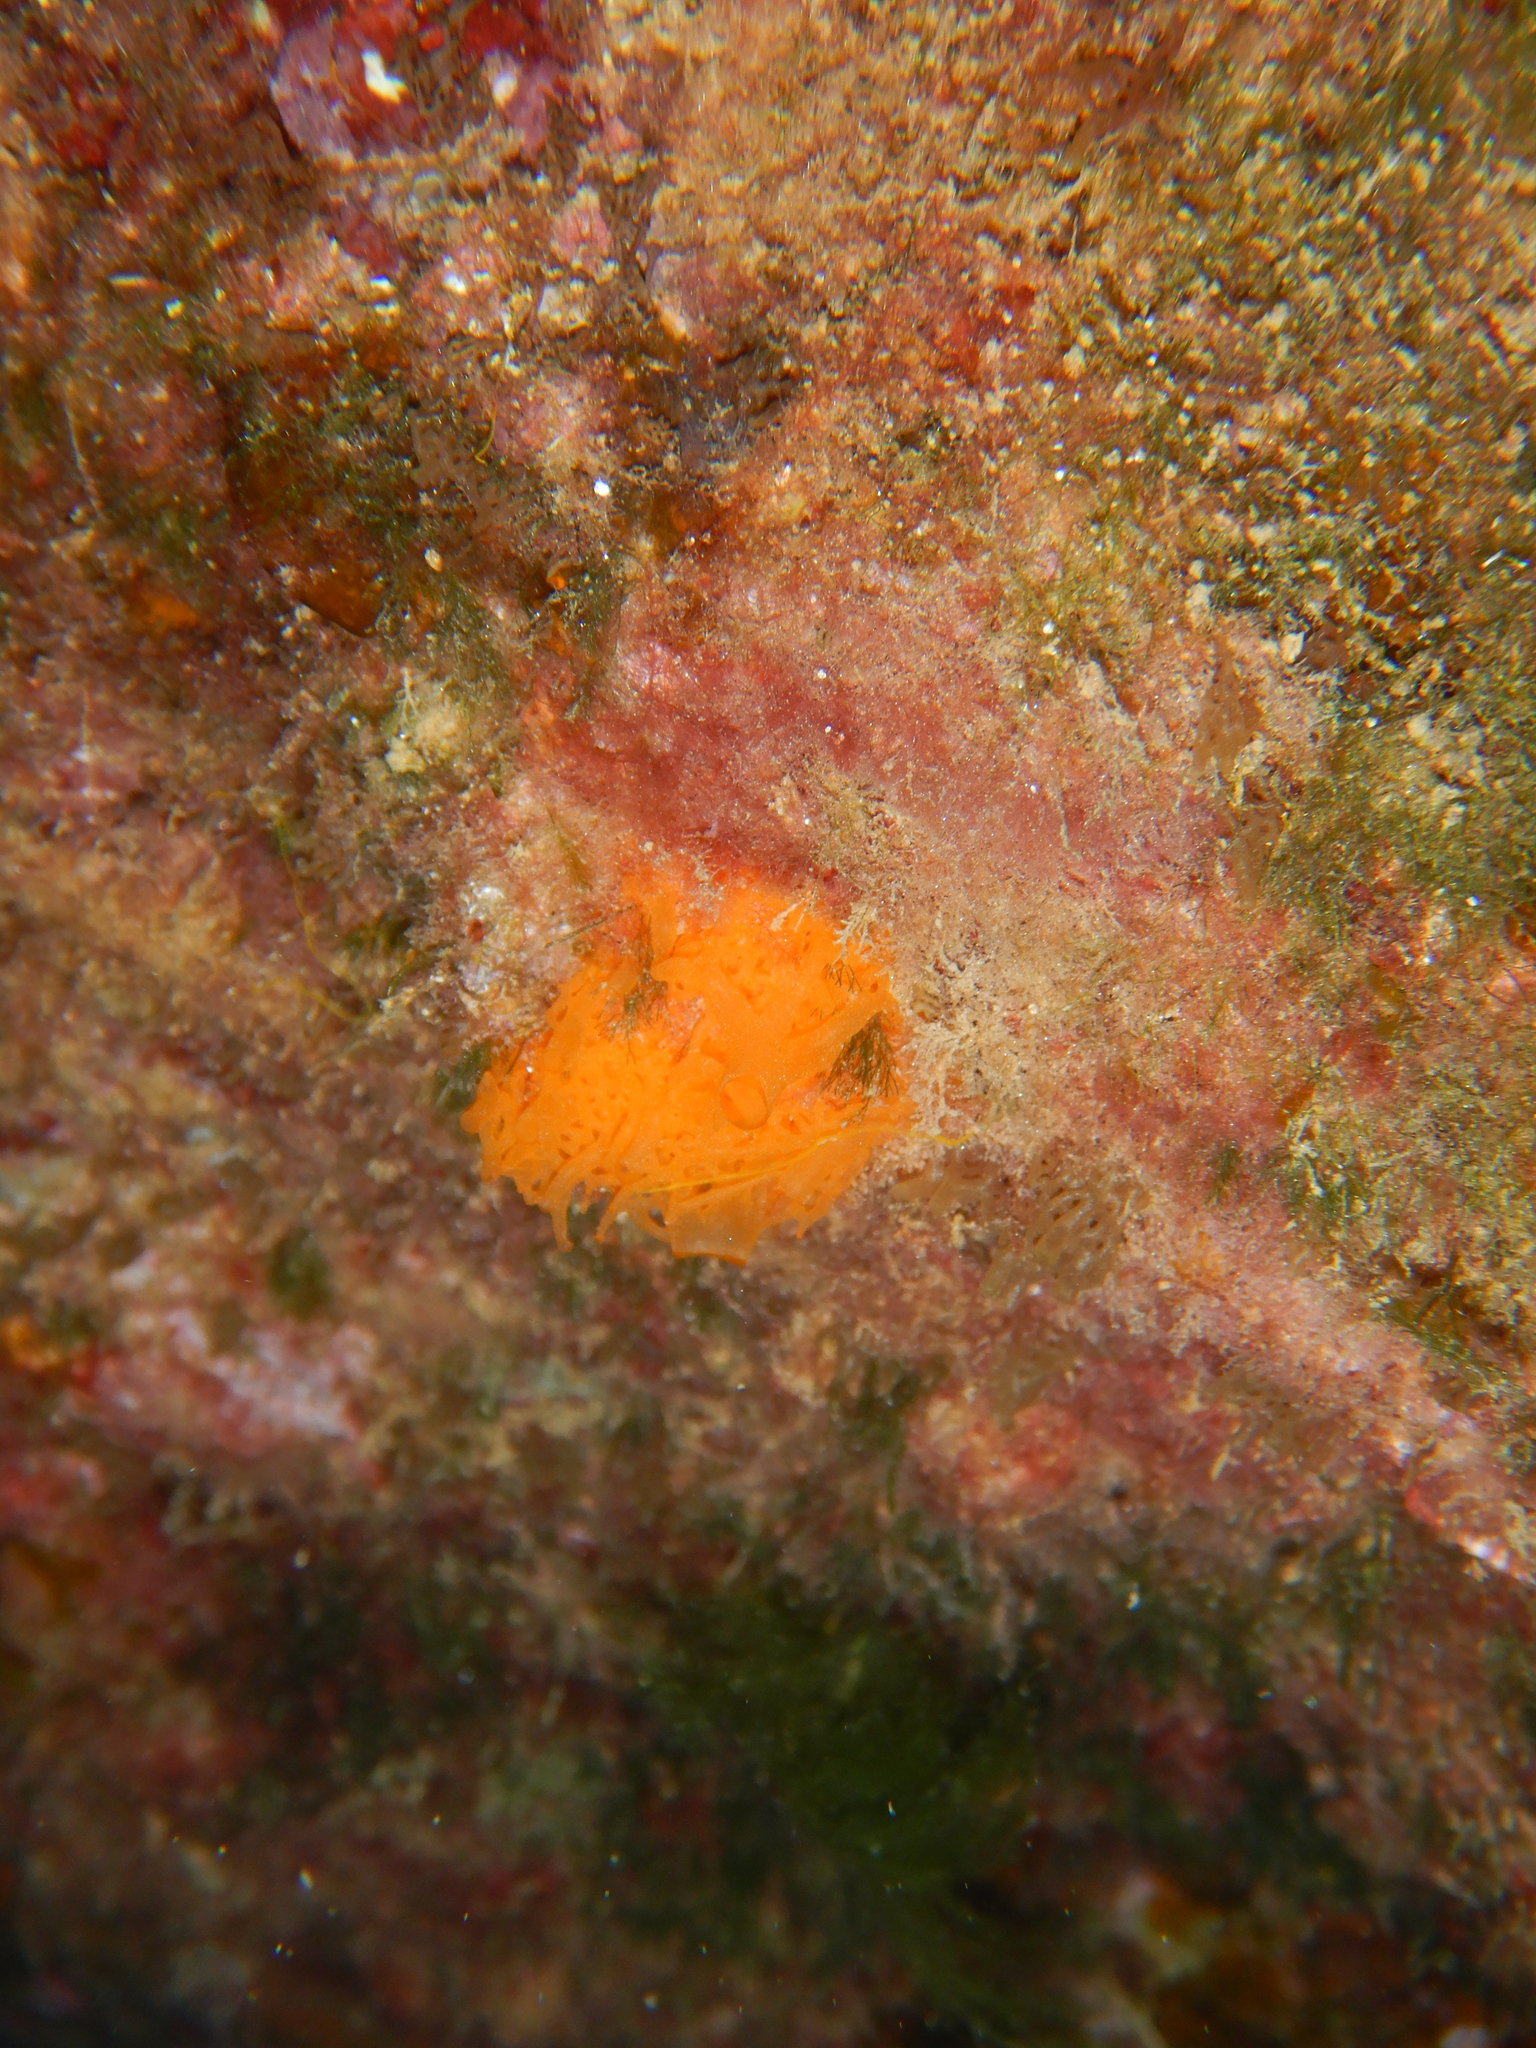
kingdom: Animalia
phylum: Porifera
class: Calcarea
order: Clathrinida
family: Clathrinidae
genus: Clathrina
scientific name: Clathrina rubra
